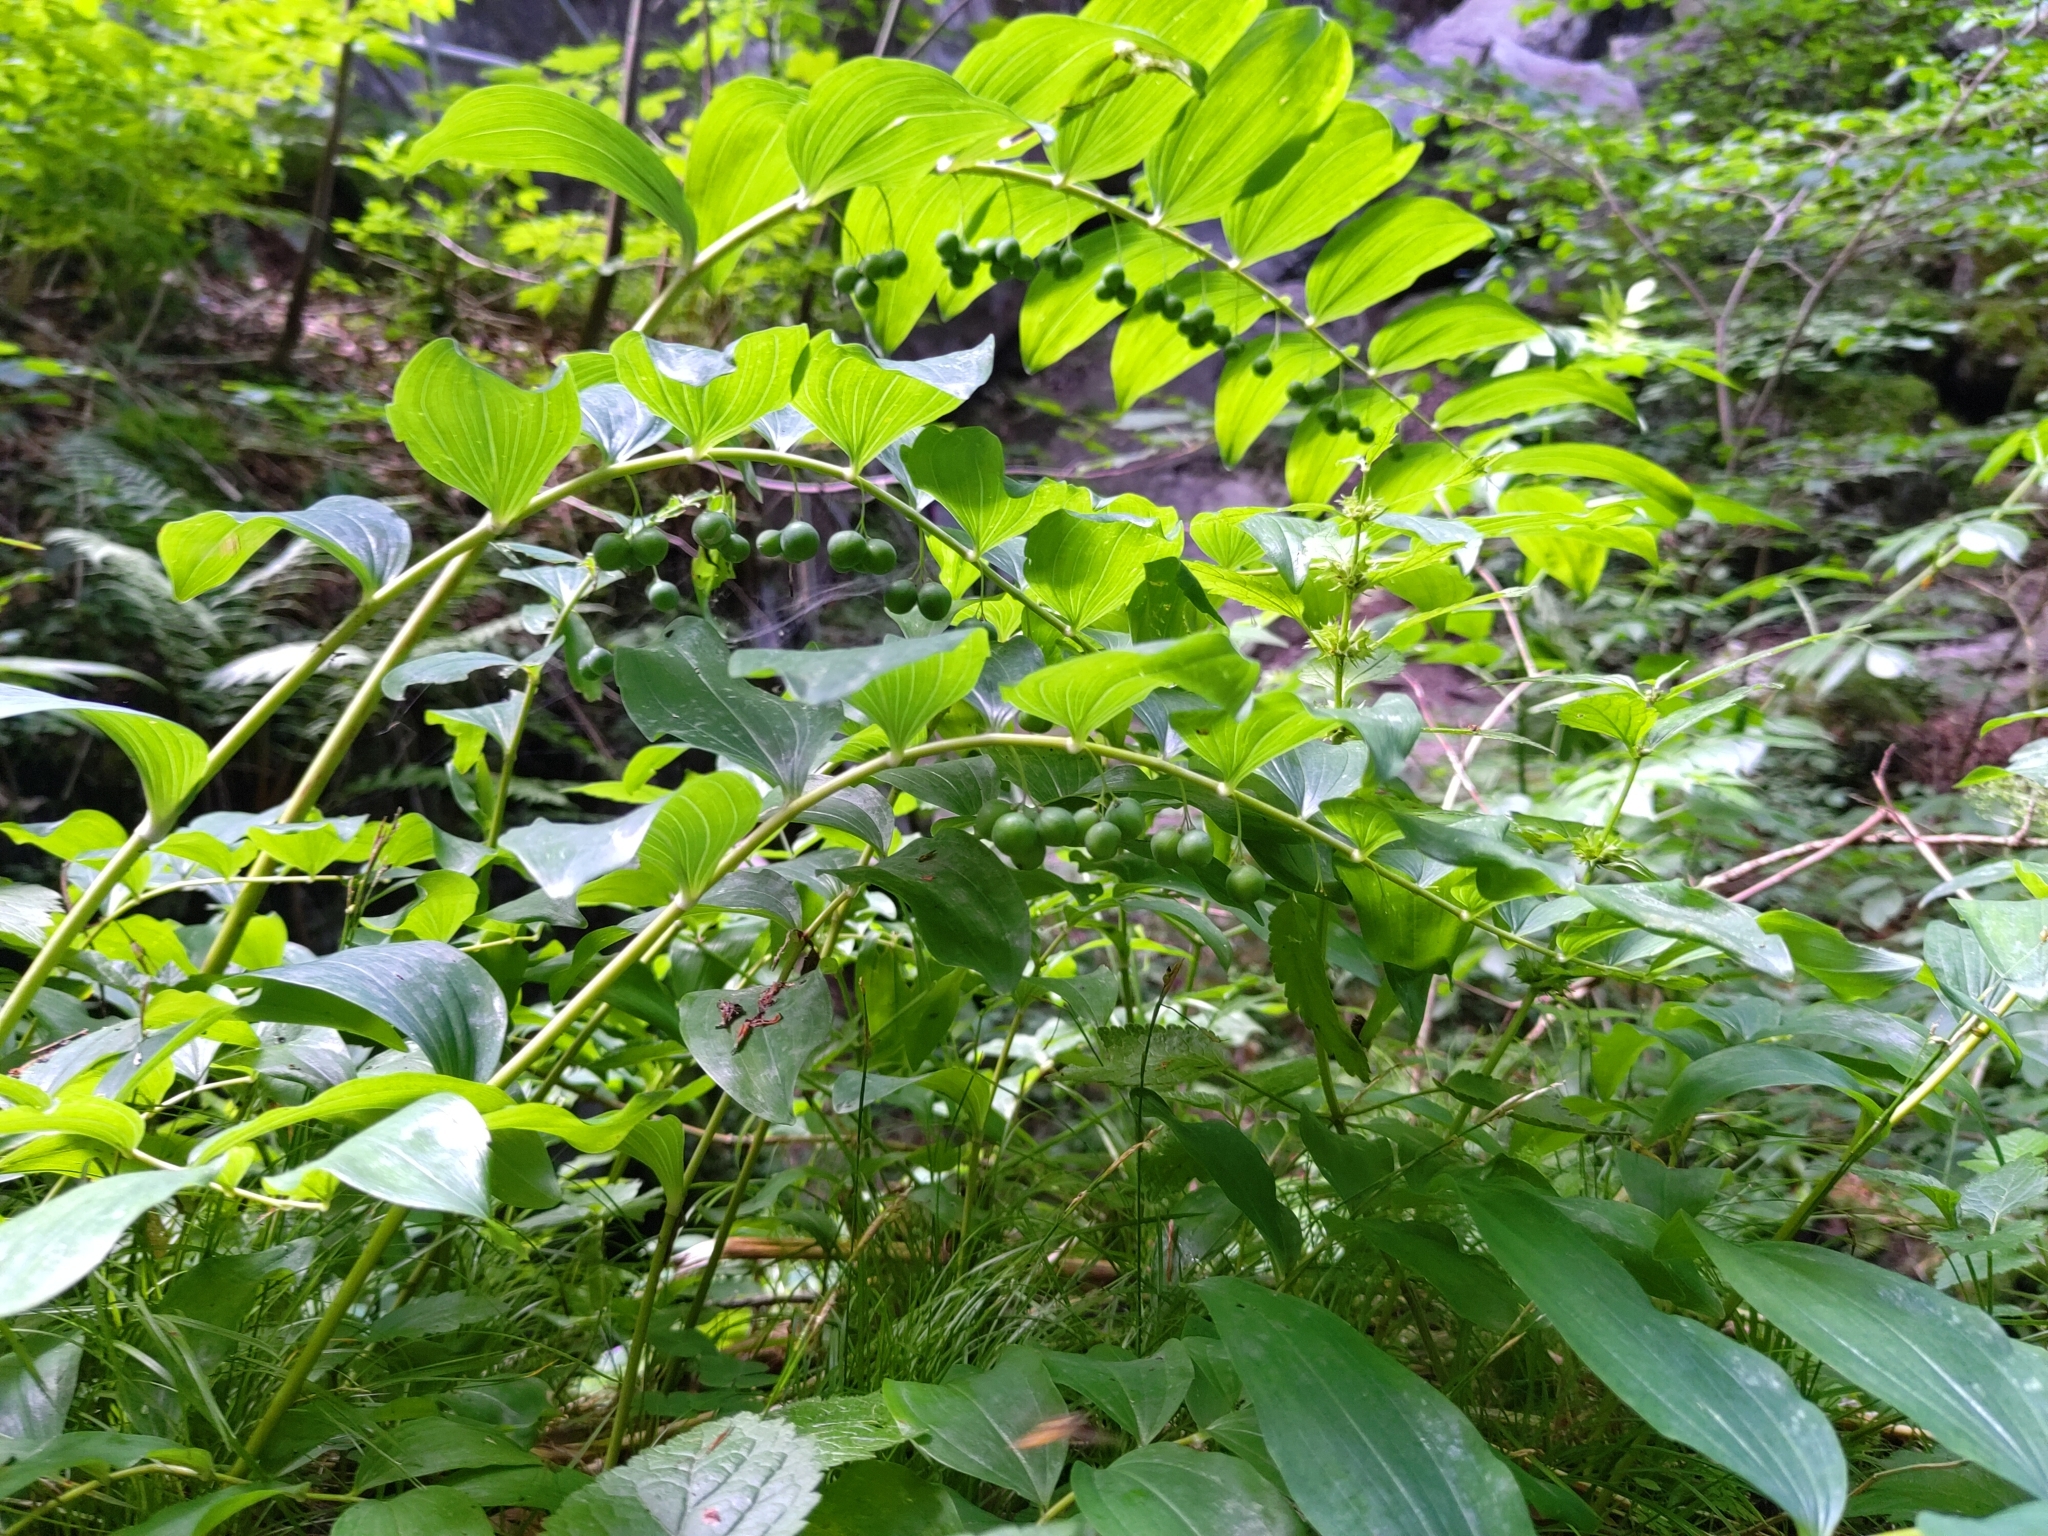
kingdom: Plantae
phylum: Tracheophyta
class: Liliopsida
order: Asparagales
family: Asparagaceae
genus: Polygonatum
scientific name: Polygonatum multiflorum
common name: Solomon's-seal
